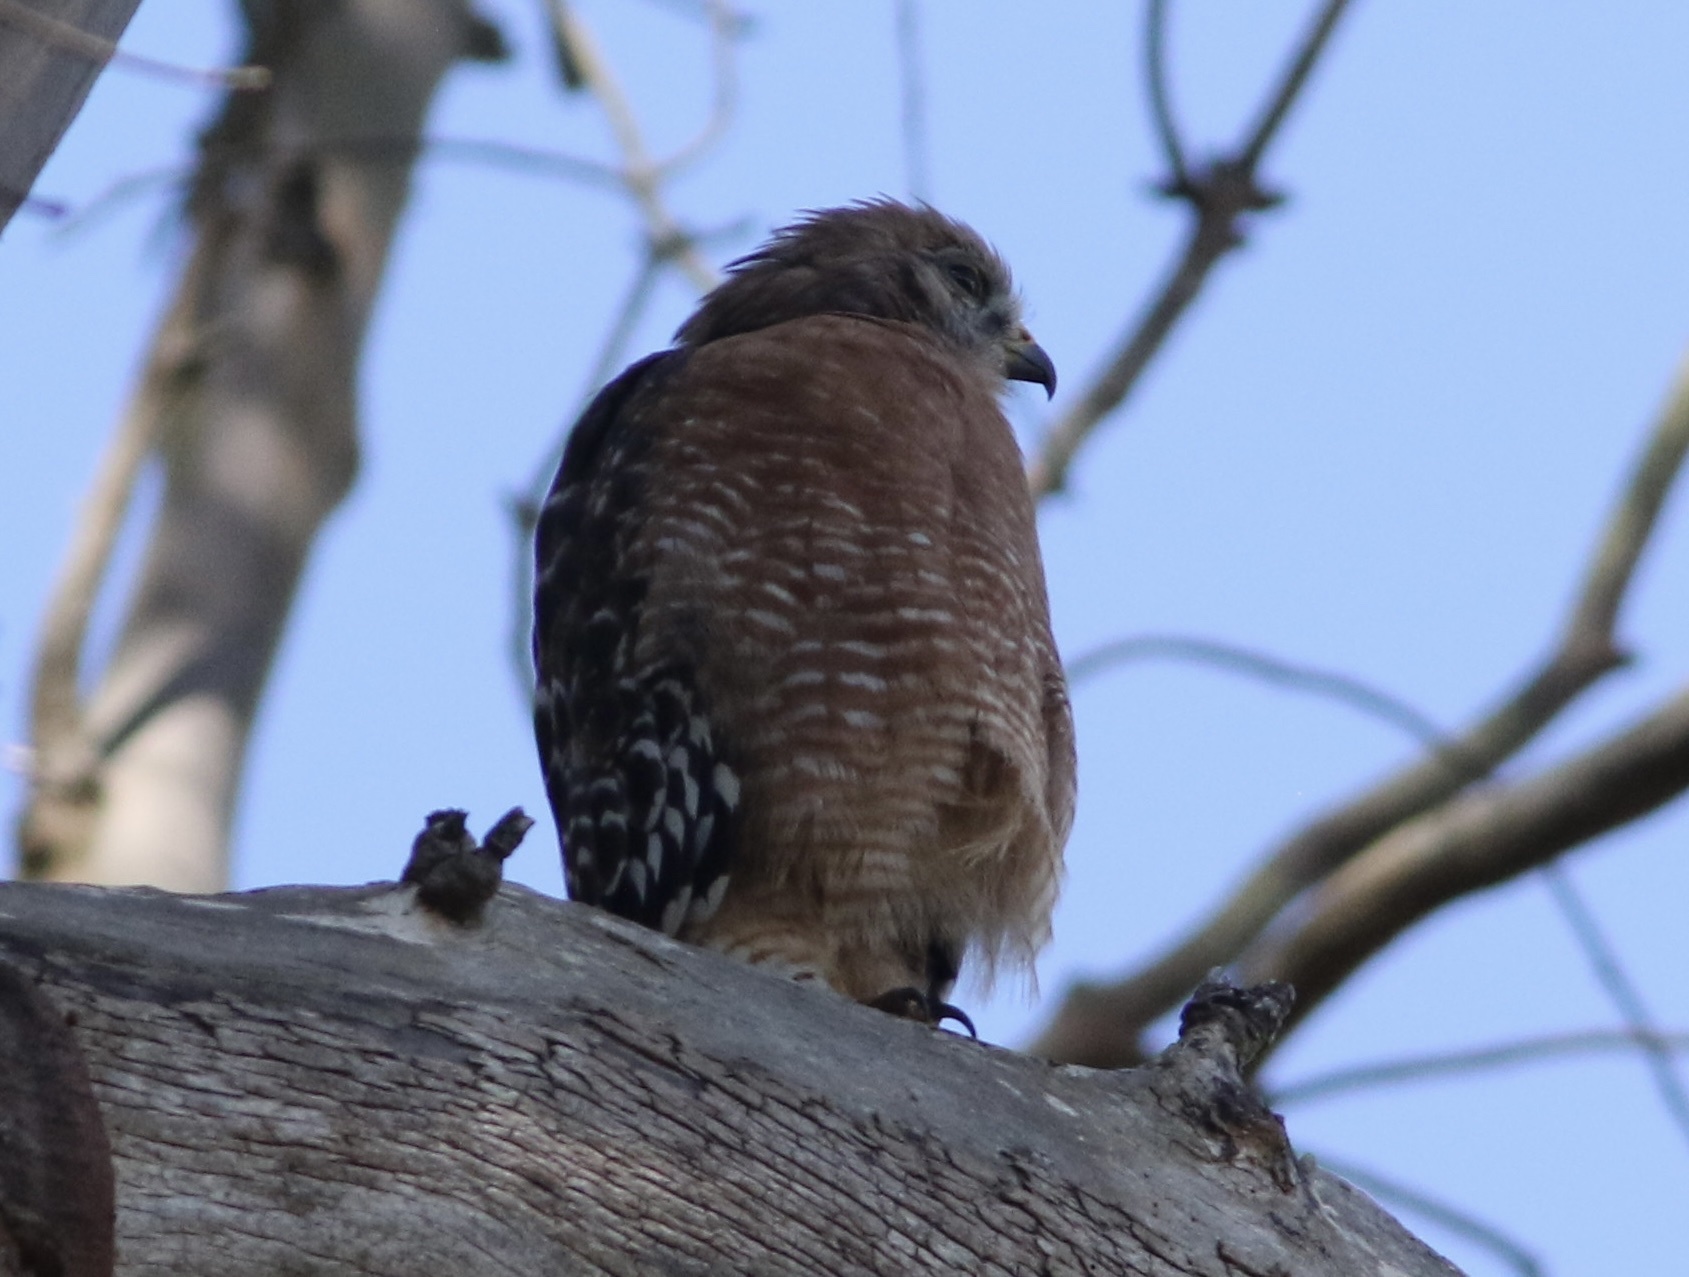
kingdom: Animalia
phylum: Chordata
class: Aves
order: Accipitriformes
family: Accipitridae
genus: Buteo
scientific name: Buteo lineatus
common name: Red-shouldered hawk
